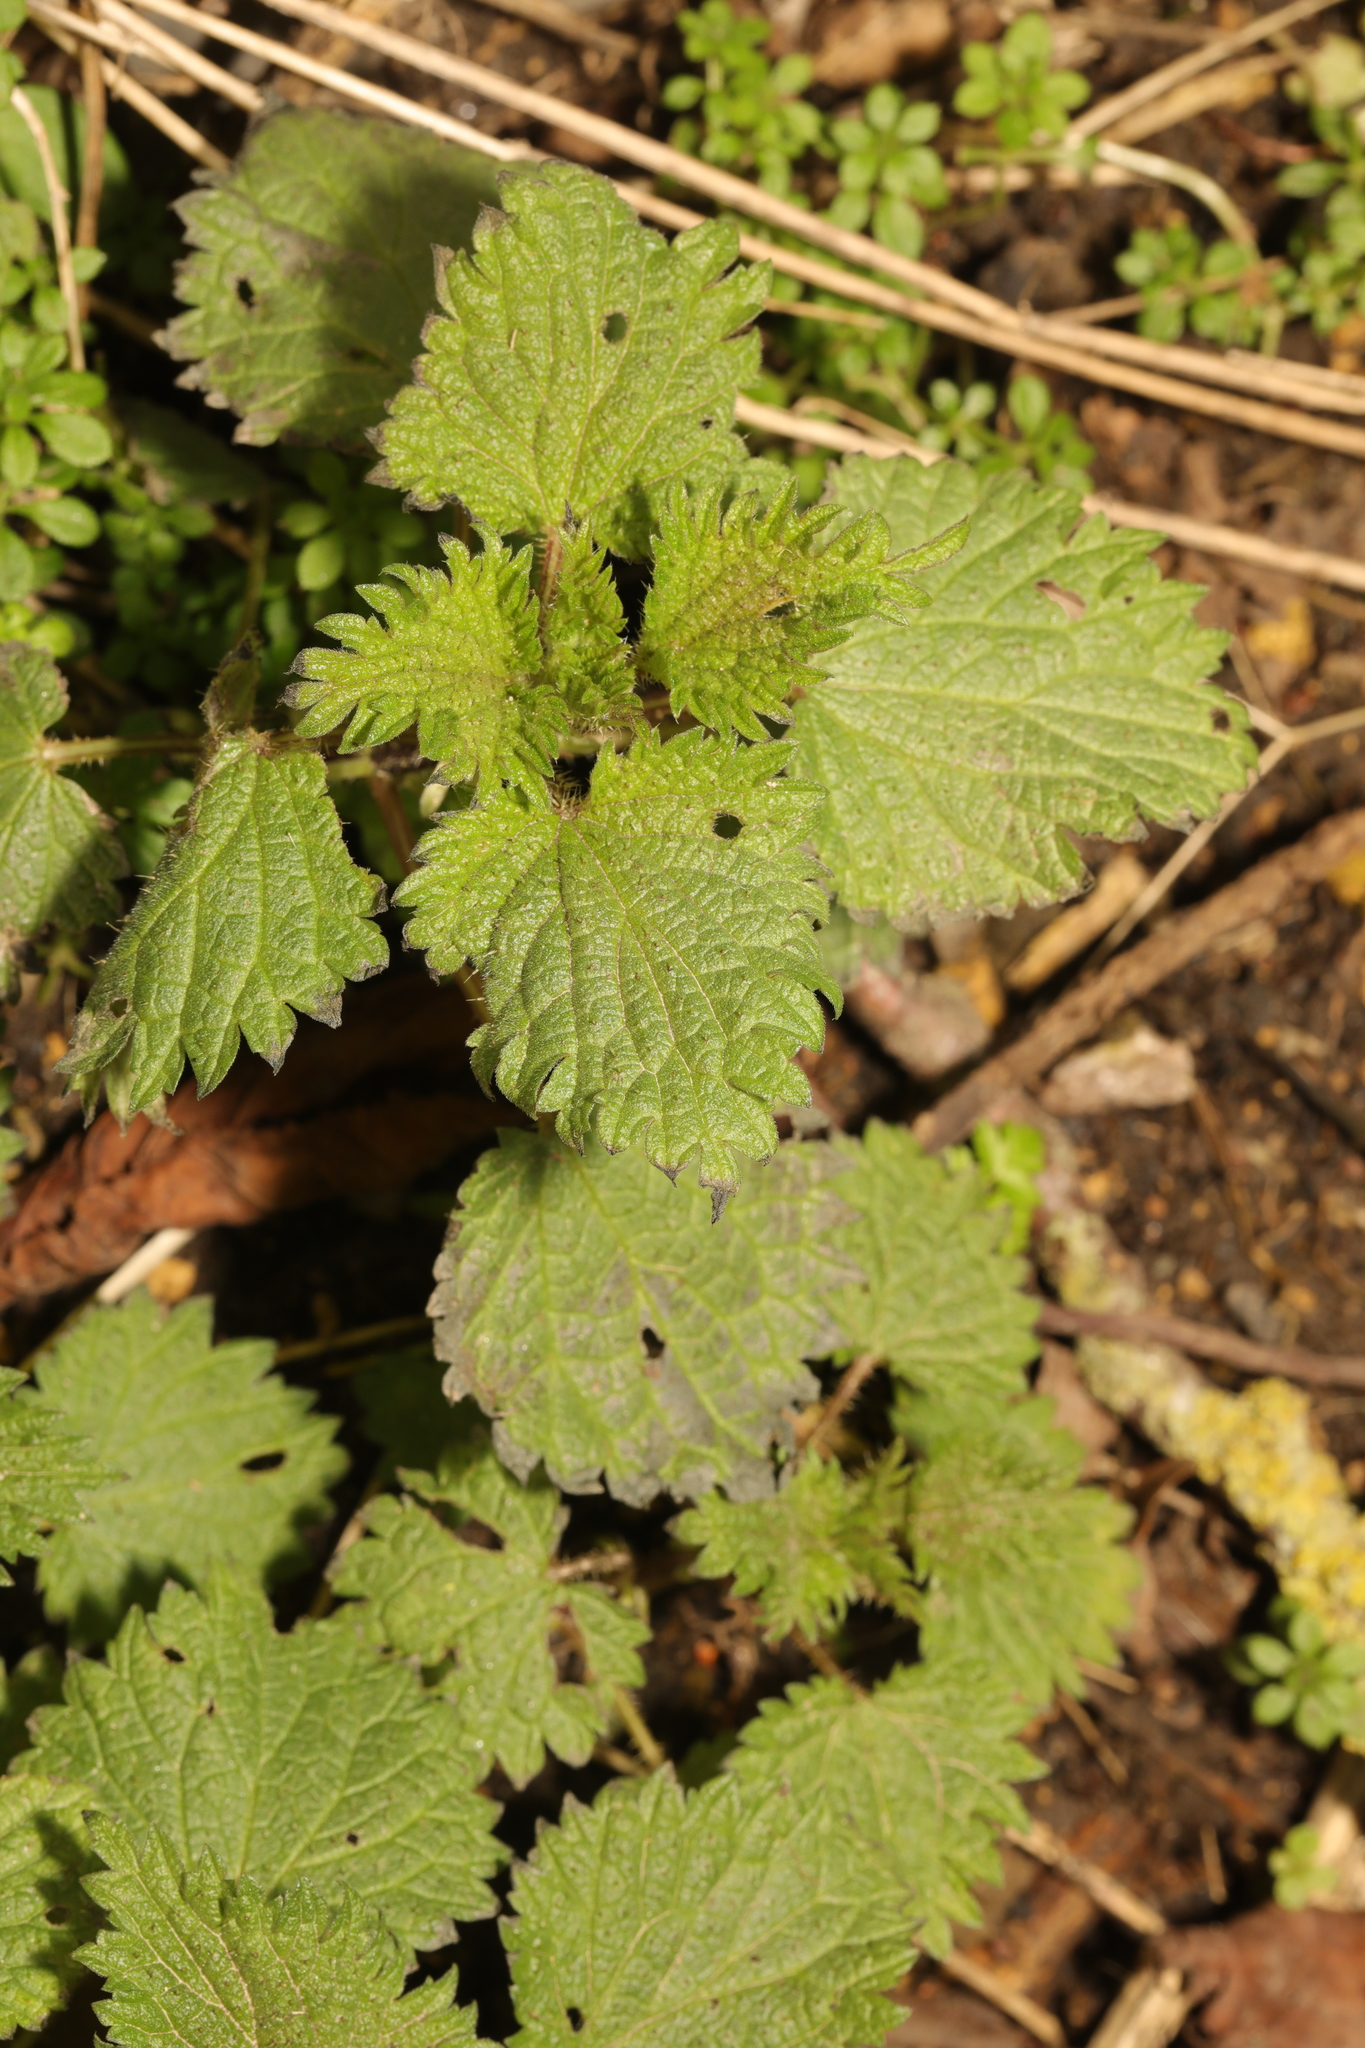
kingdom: Plantae
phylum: Tracheophyta
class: Magnoliopsida
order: Rosales
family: Urticaceae
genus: Urtica
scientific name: Urtica dioica
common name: Common nettle
